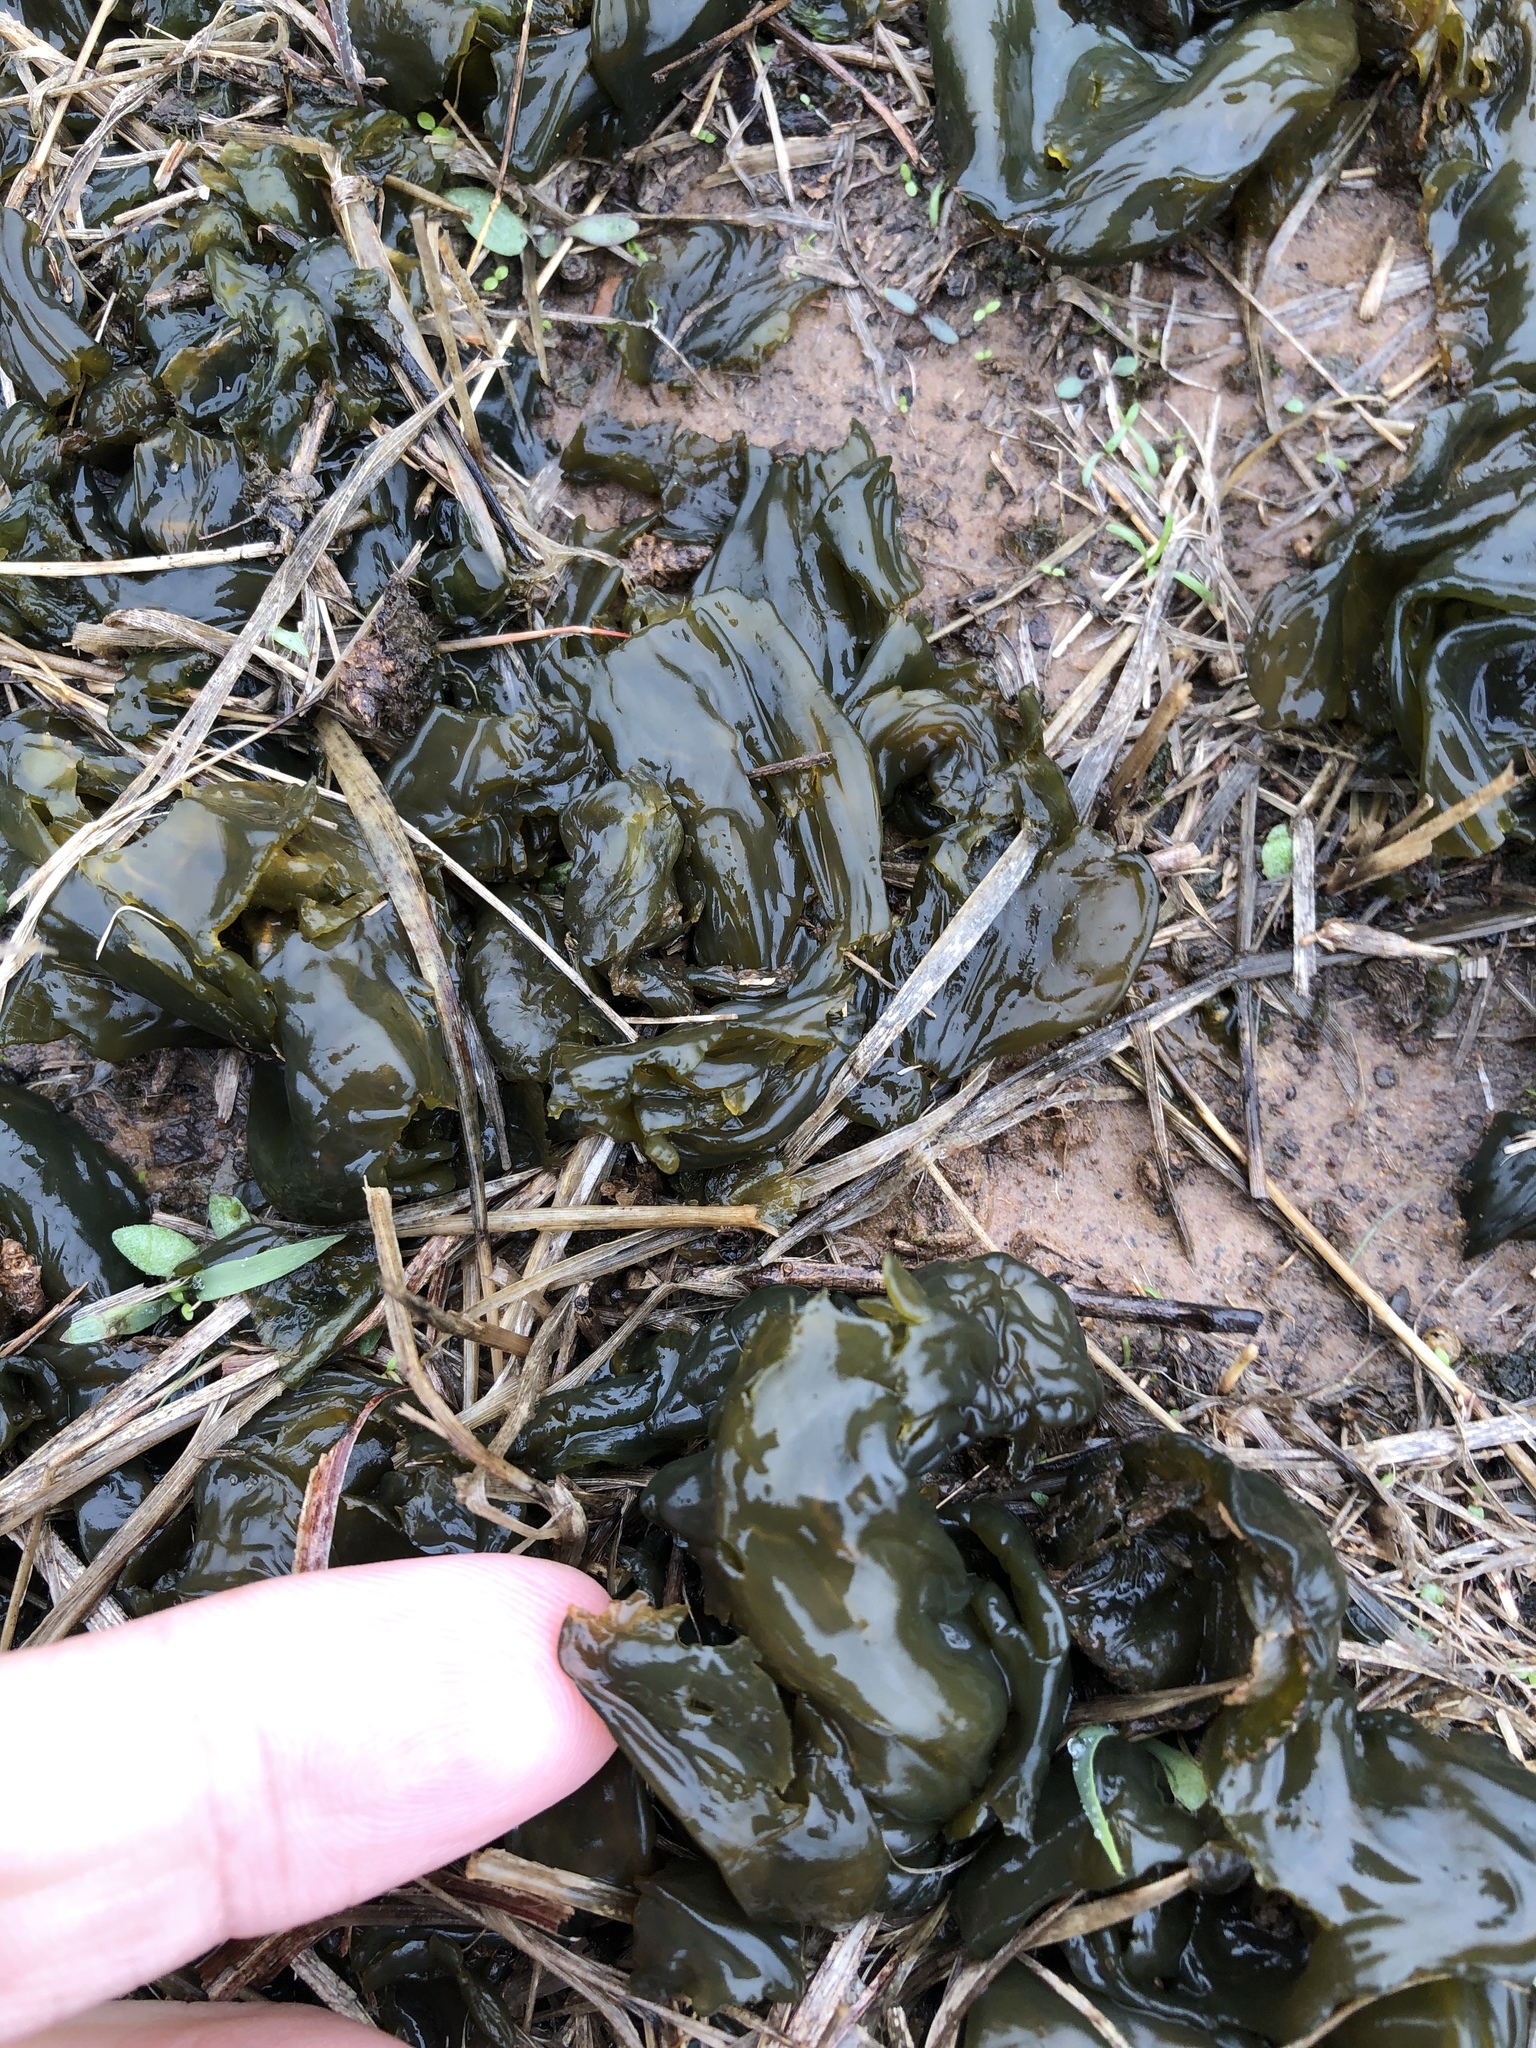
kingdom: Bacteria
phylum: Cyanobacteria
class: Cyanobacteriia
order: Cyanobacteriales
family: Nostocaceae
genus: Nostoc
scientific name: Nostoc commune
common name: Star jelly
